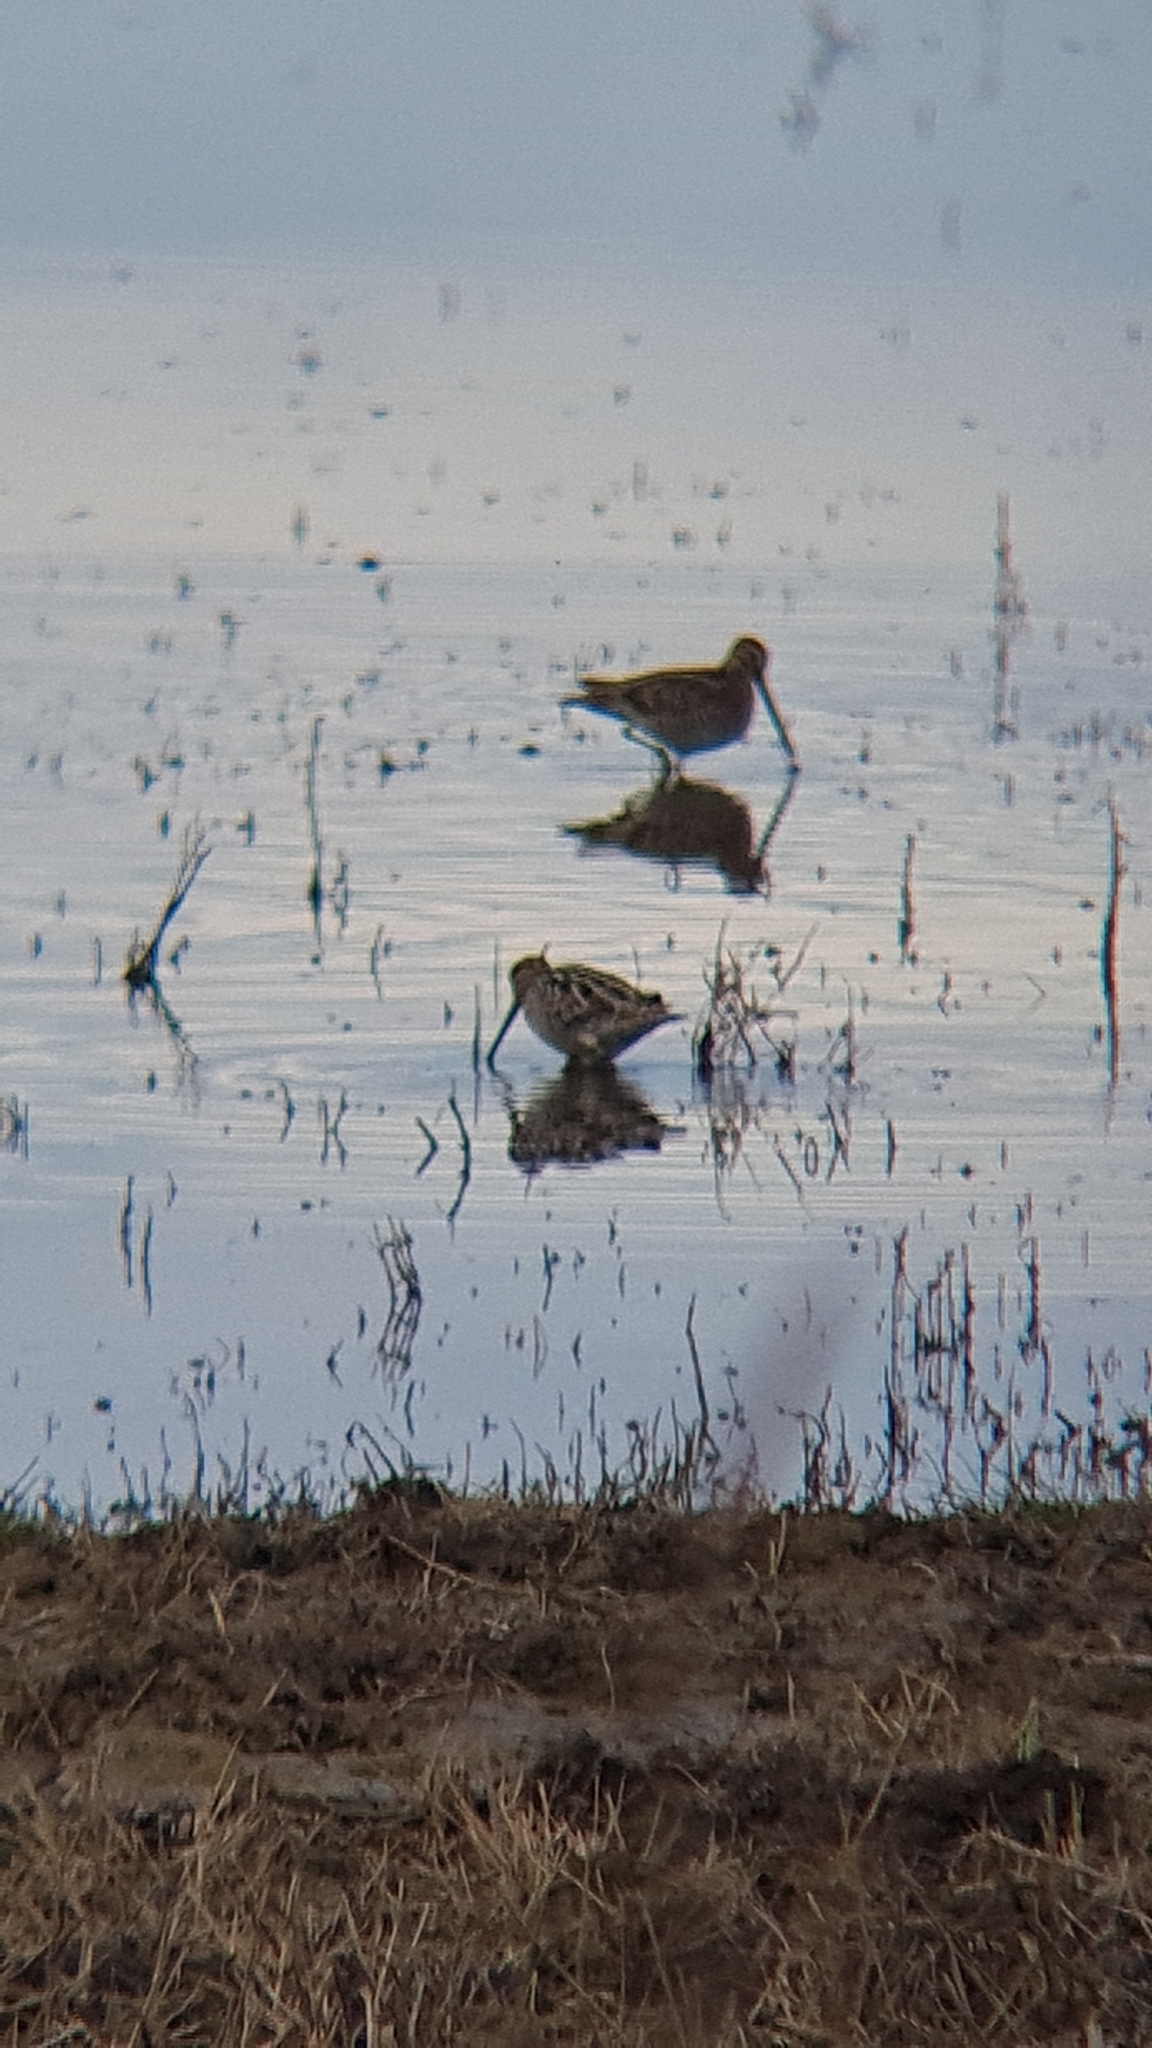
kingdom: Animalia
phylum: Chordata
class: Aves
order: Charadriiformes
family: Scolopacidae
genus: Gallinago
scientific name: Gallinago gallinago
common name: Common snipe
